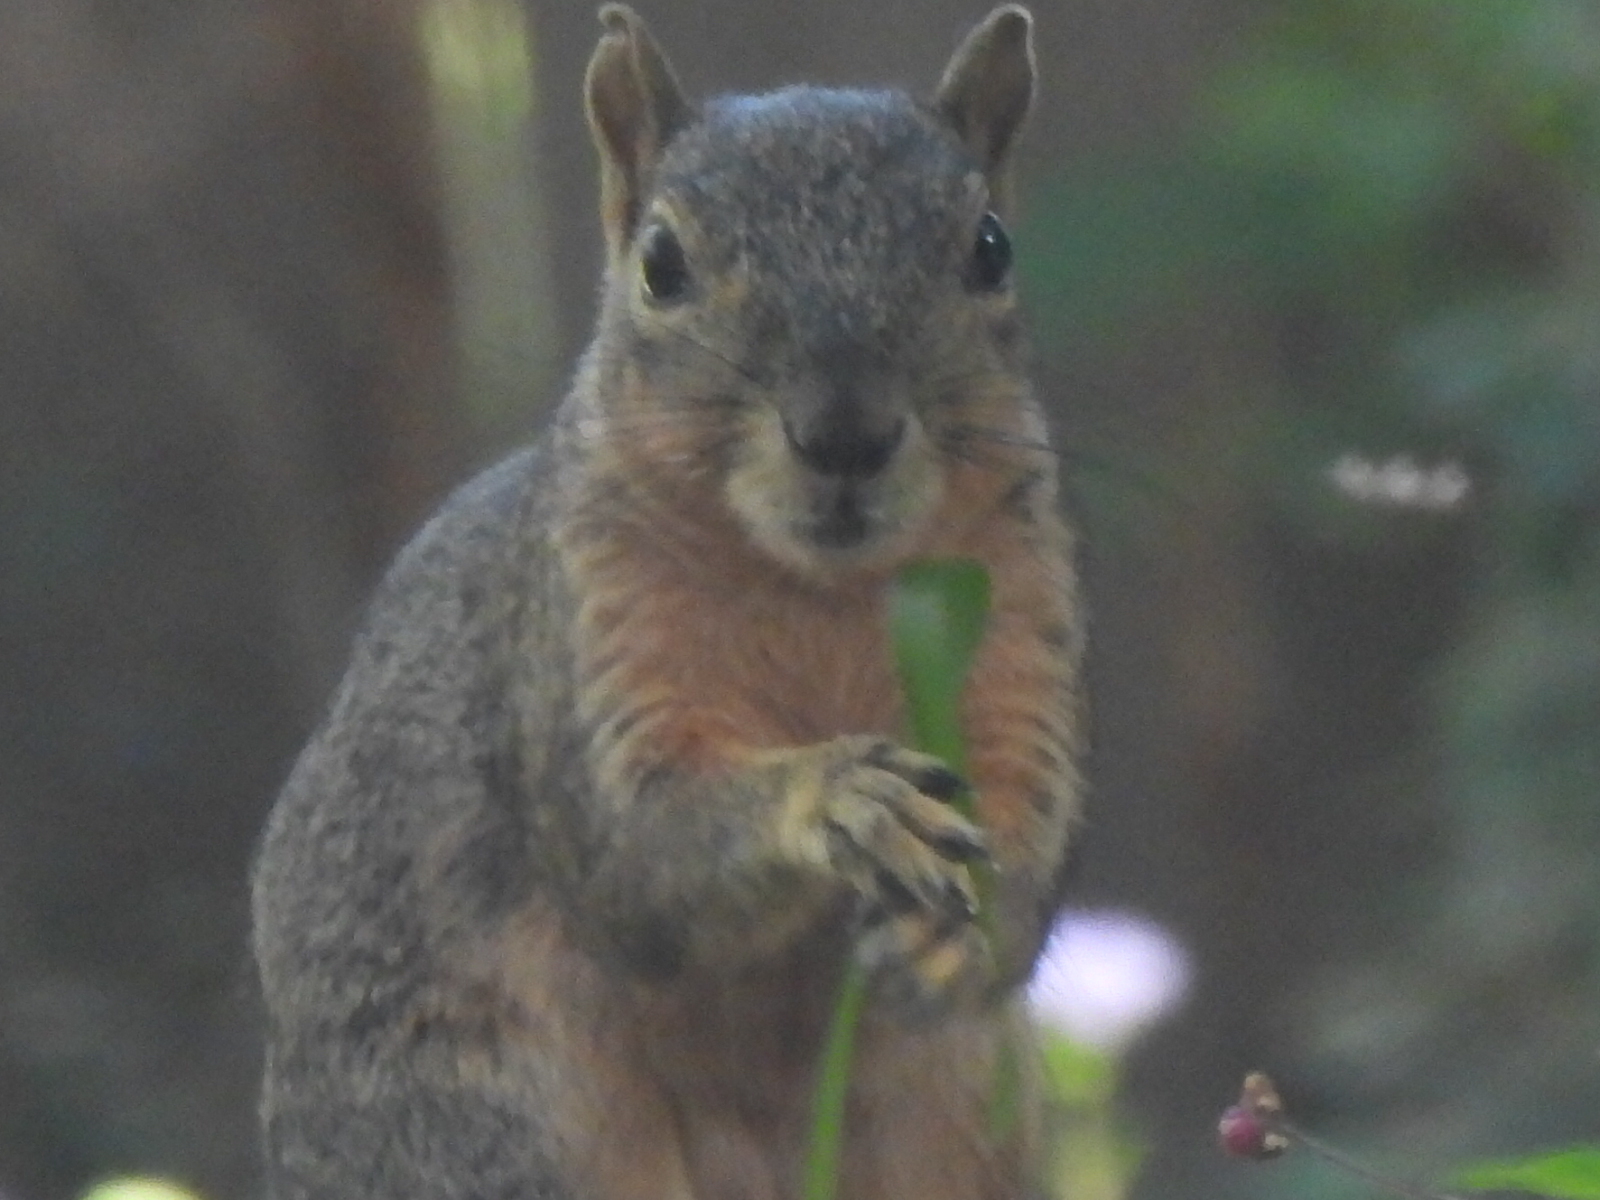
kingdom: Animalia
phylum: Chordata
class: Mammalia
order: Rodentia
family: Sciuridae
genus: Sciurus
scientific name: Sciurus niger
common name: Fox squirrel
